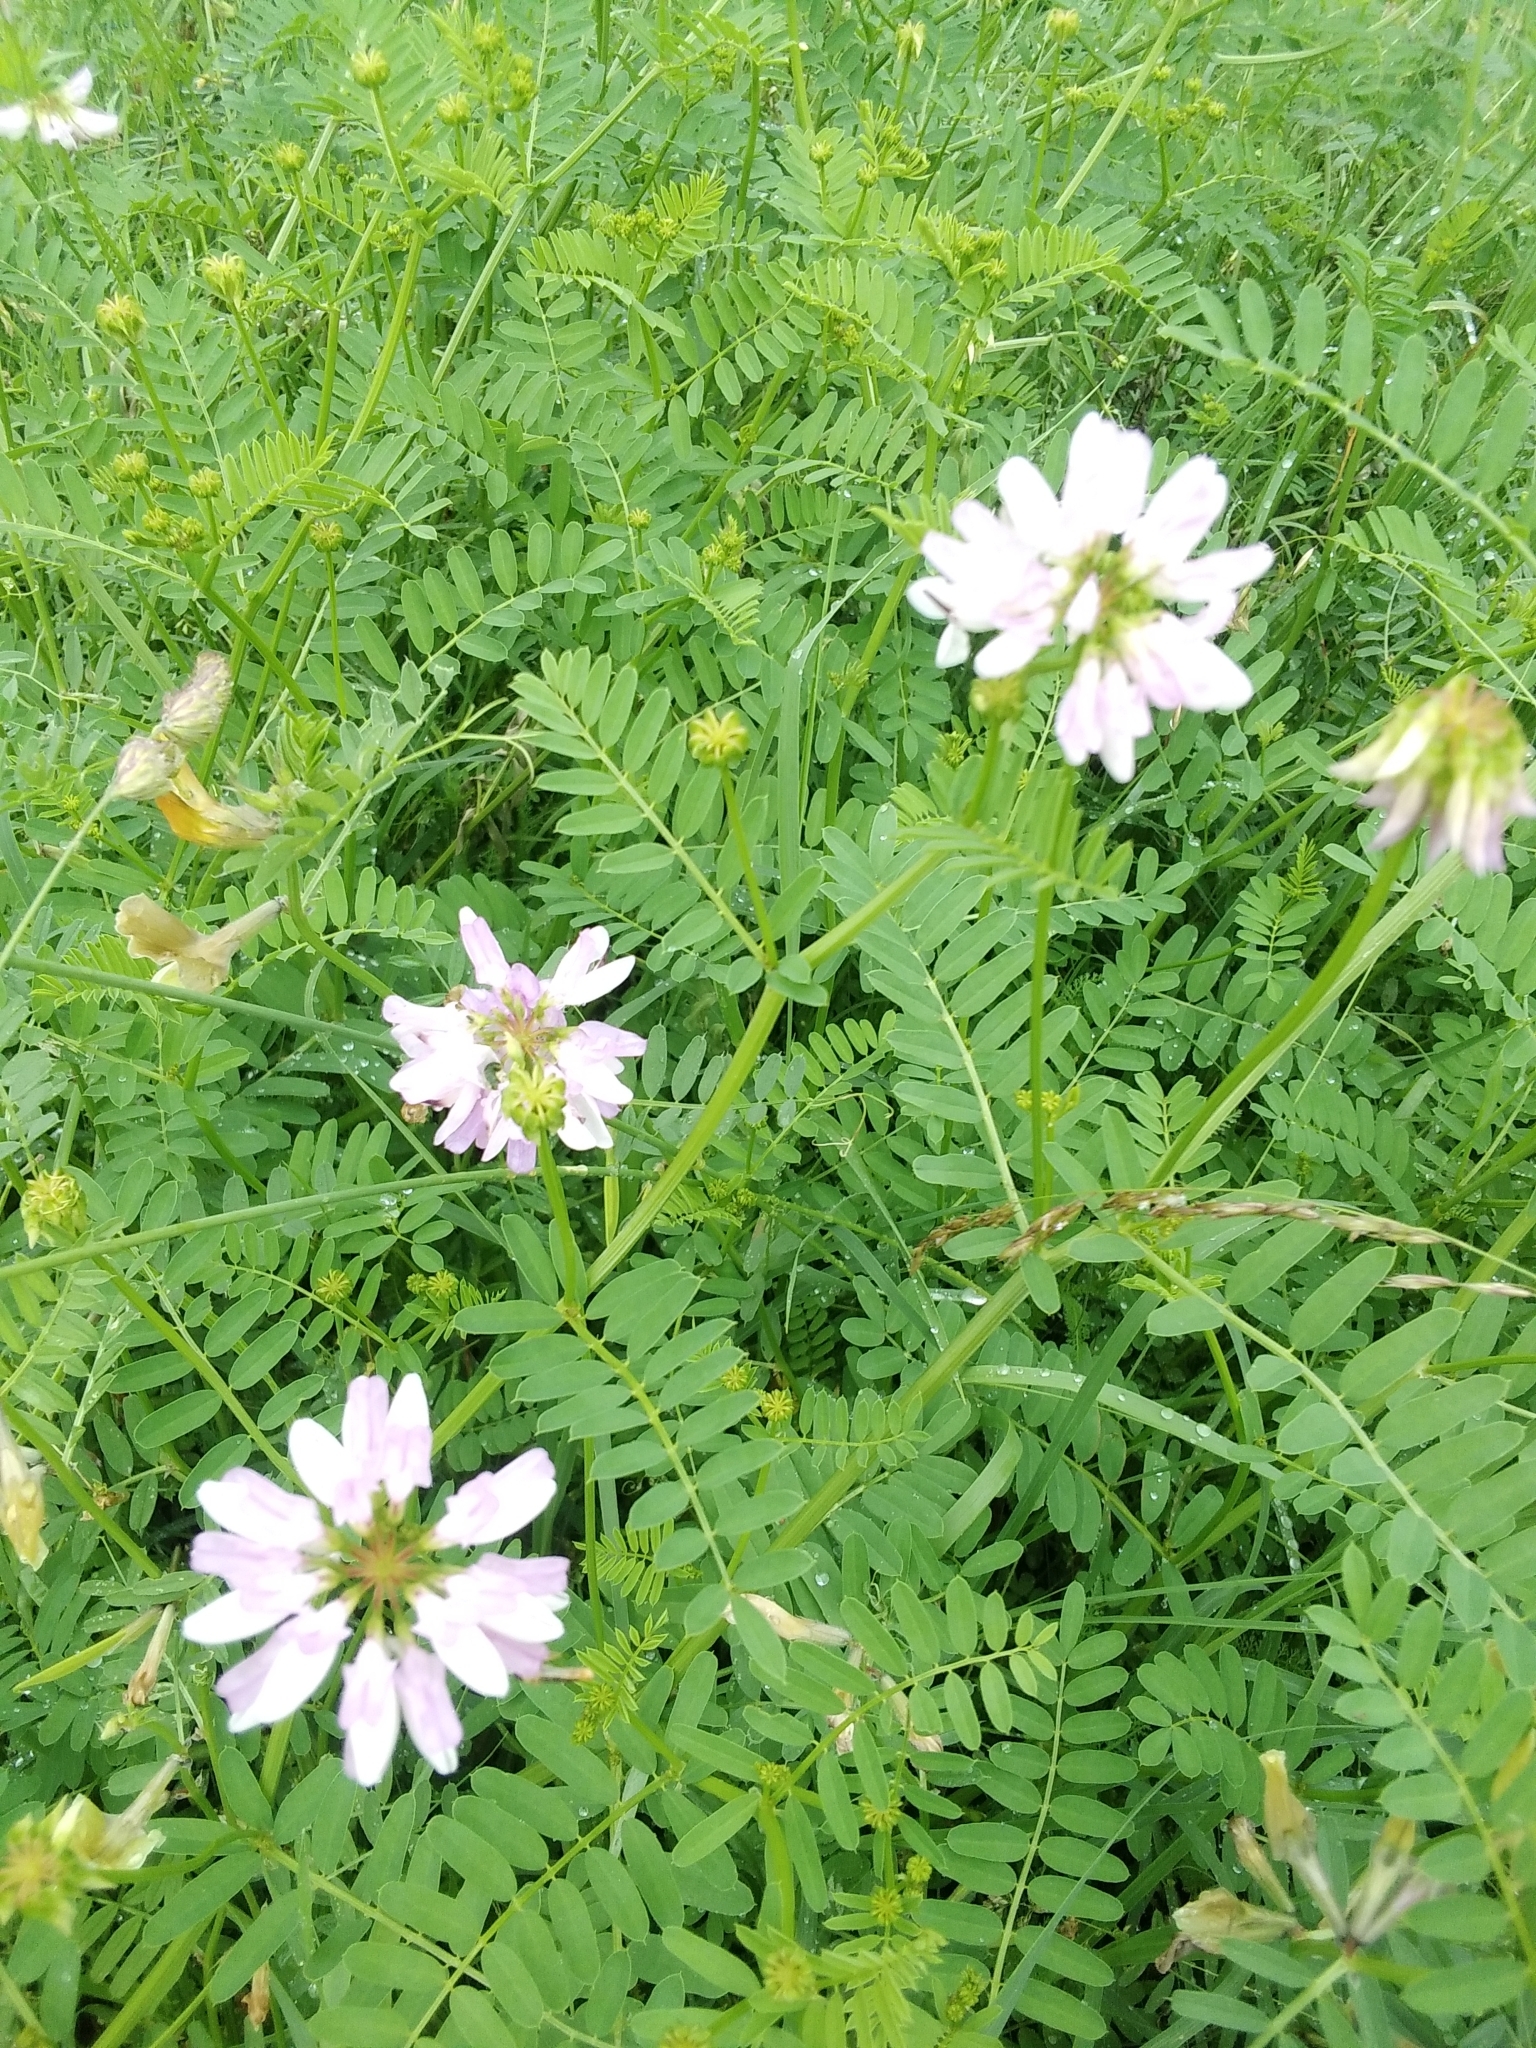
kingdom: Plantae
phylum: Tracheophyta
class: Magnoliopsida
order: Fabales
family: Fabaceae
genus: Coronilla
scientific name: Coronilla varia
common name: Crownvetch
